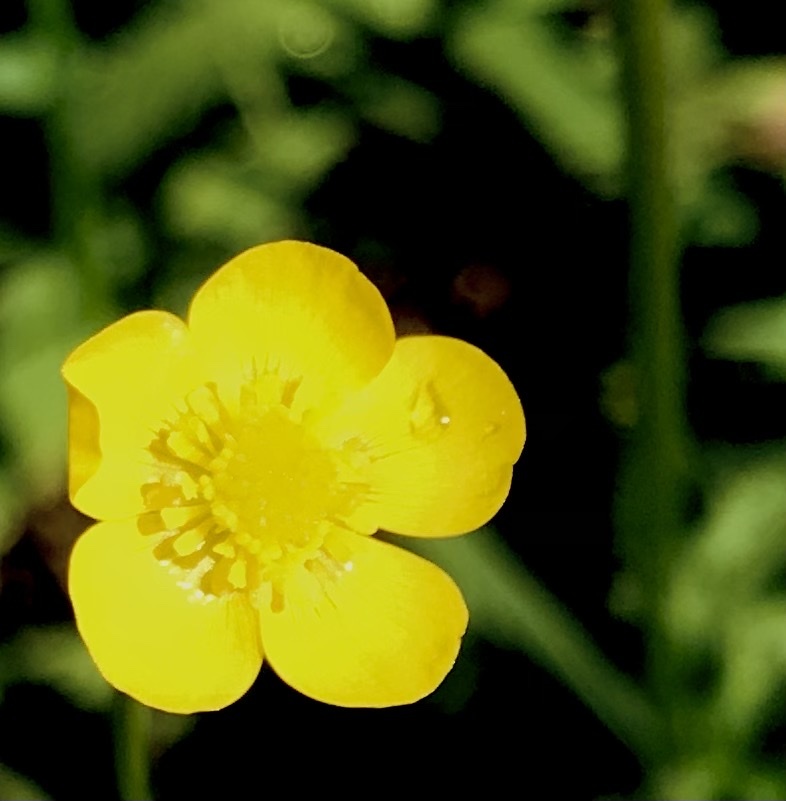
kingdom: Plantae
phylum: Tracheophyta
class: Magnoliopsida
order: Ranunculales
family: Ranunculaceae
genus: Ranunculus
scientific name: Ranunculus multifidus
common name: Wild buttercup
